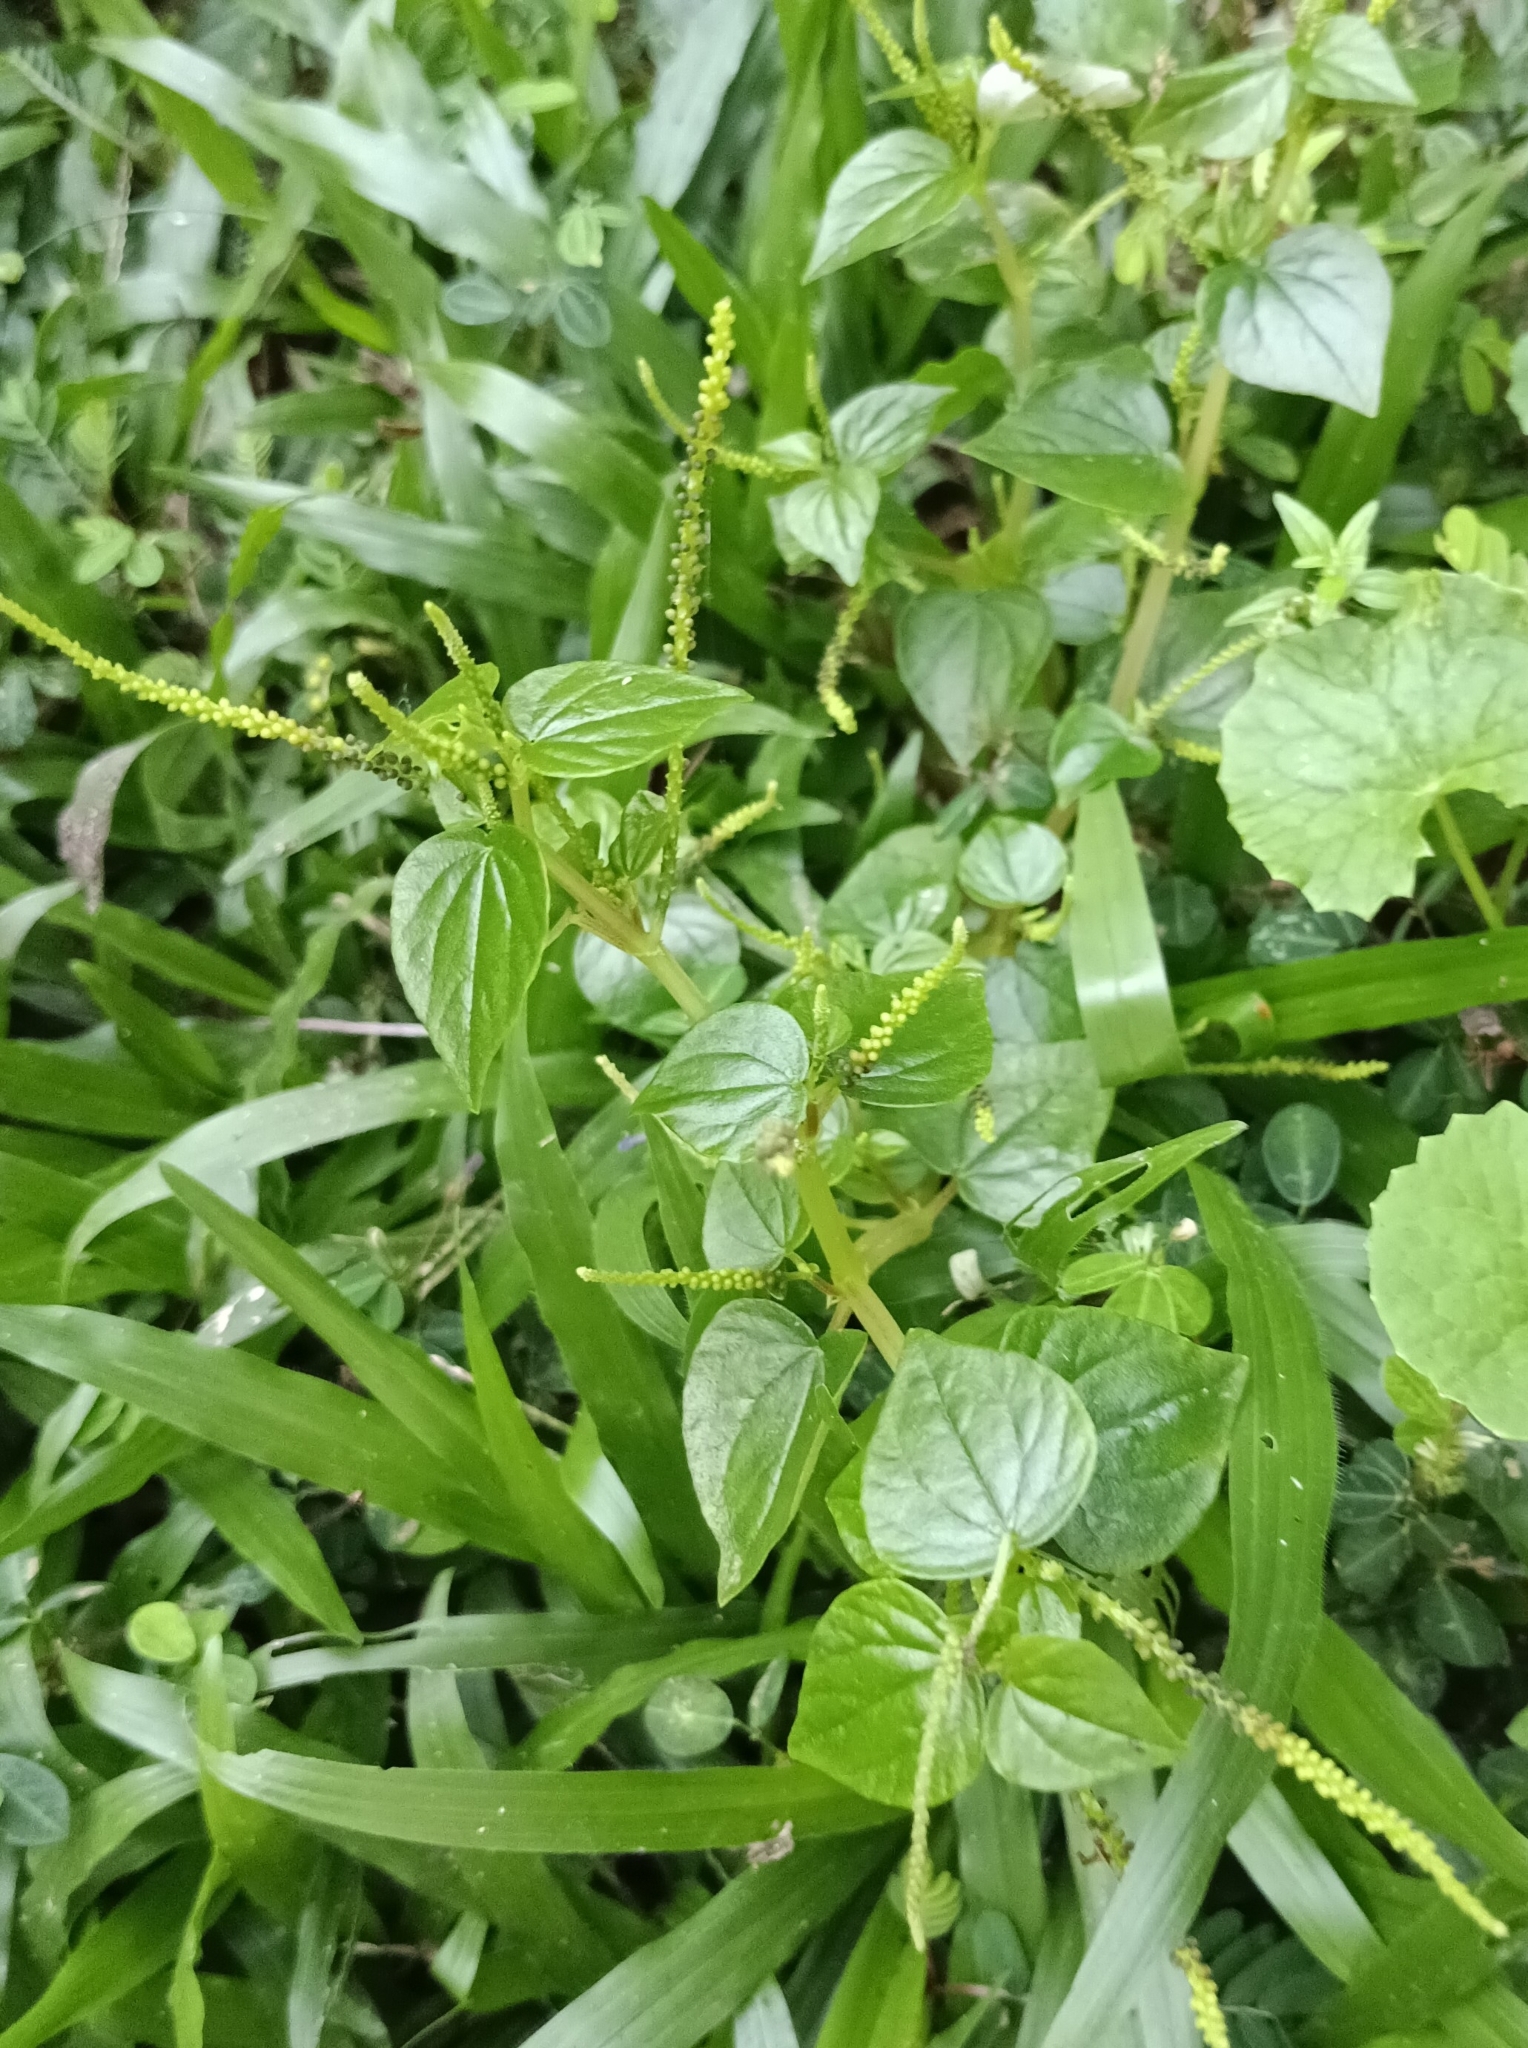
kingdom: Plantae
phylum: Tracheophyta
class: Magnoliopsida
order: Piperales
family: Piperaceae
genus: Peperomia
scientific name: Peperomia pellucida
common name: Man to man
